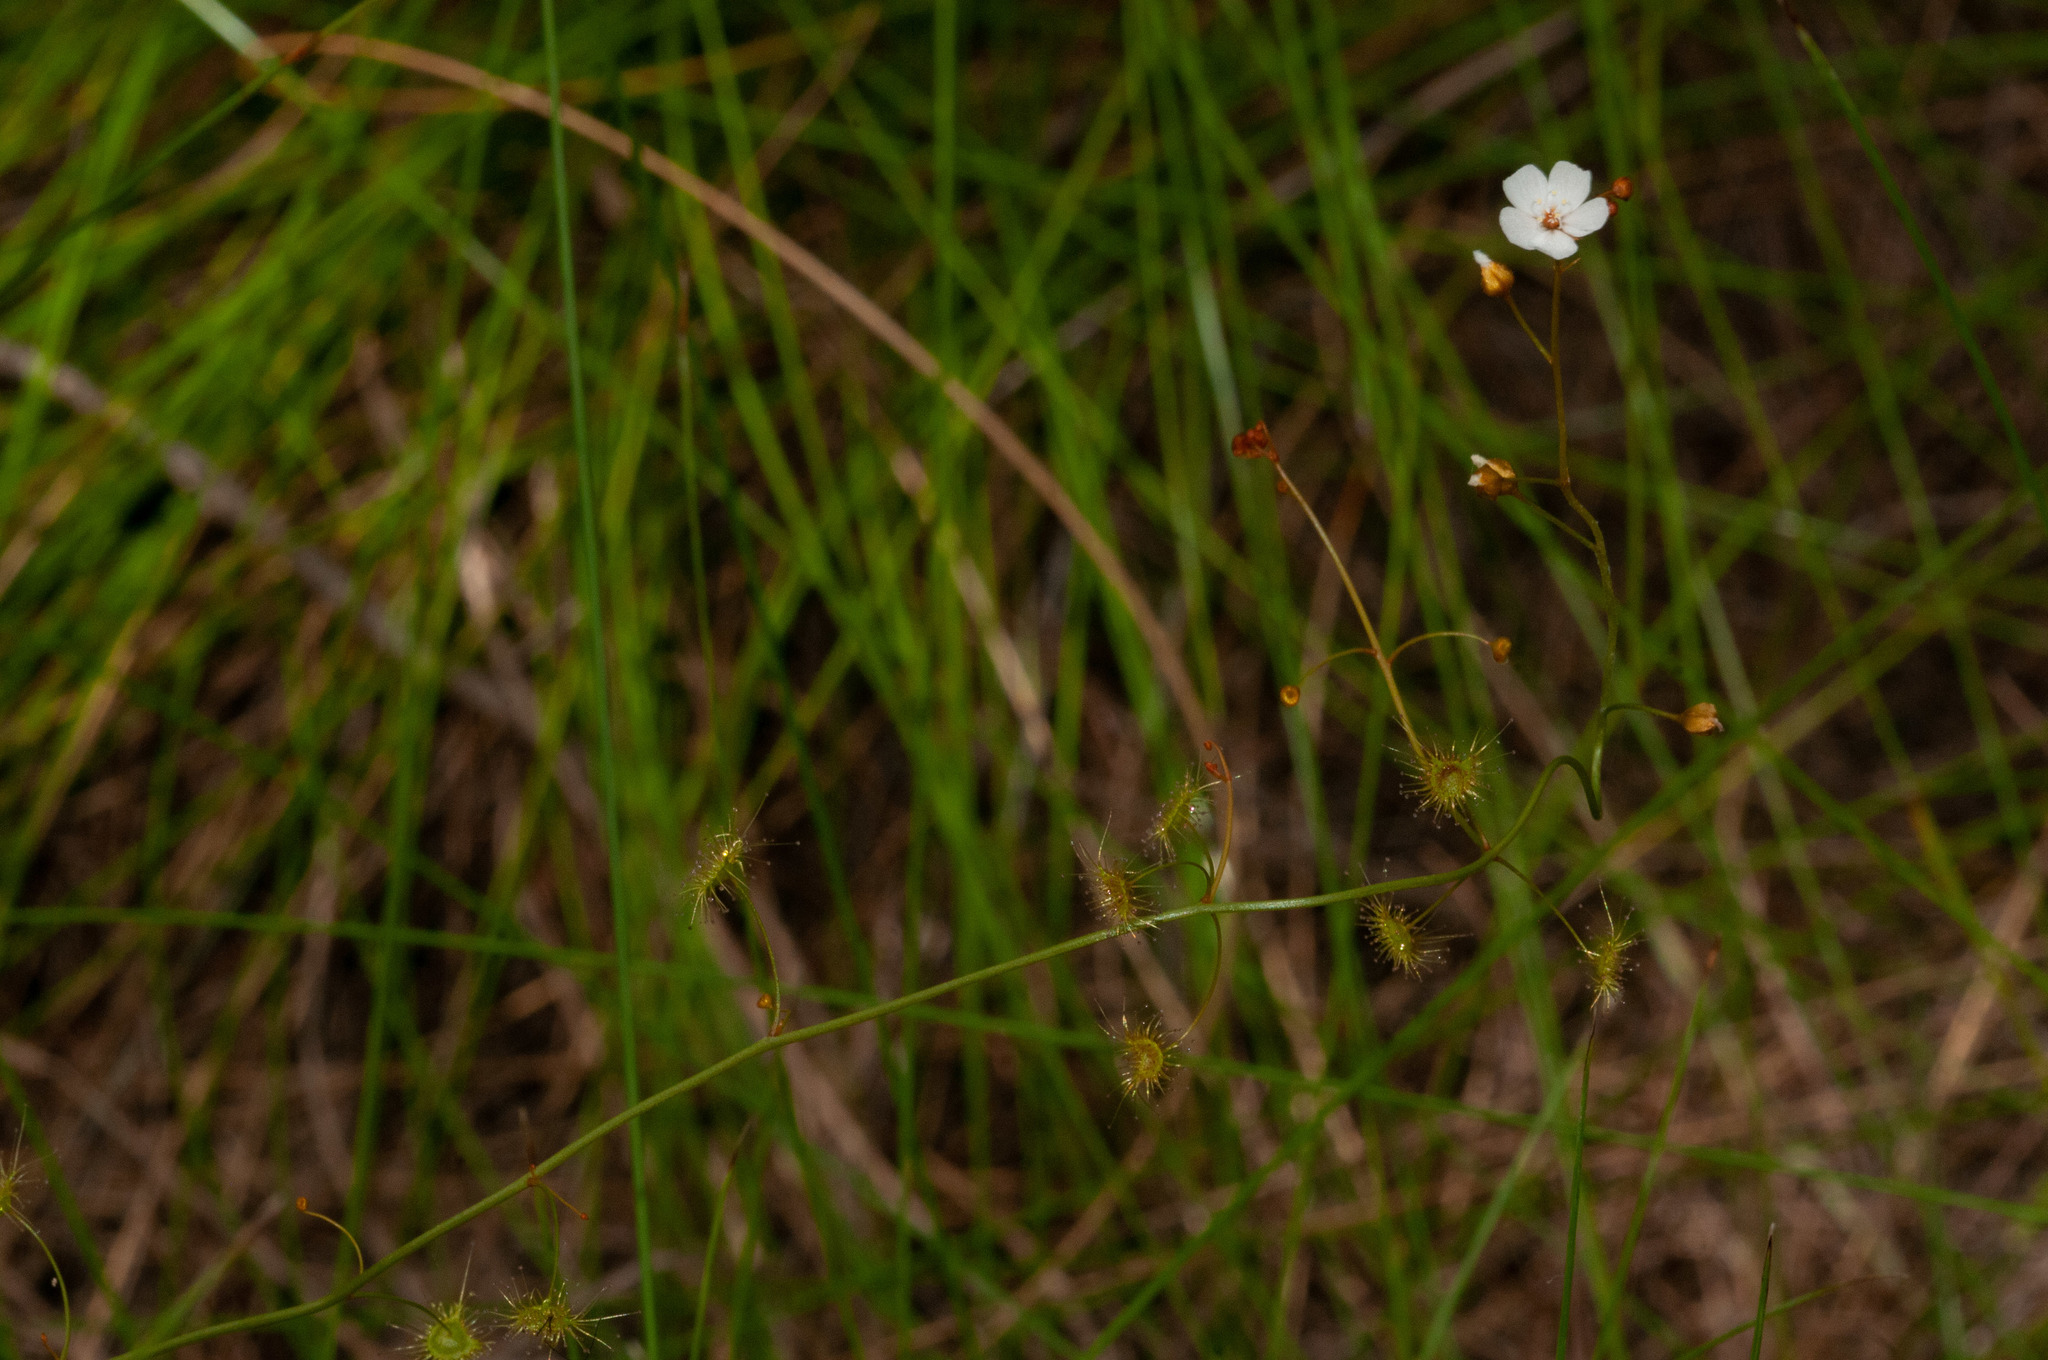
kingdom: Plantae
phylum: Tracheophyta
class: Magnoliopsida
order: Caryophyllales
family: Droseraceae
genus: Drosera
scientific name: Drosera peltata
